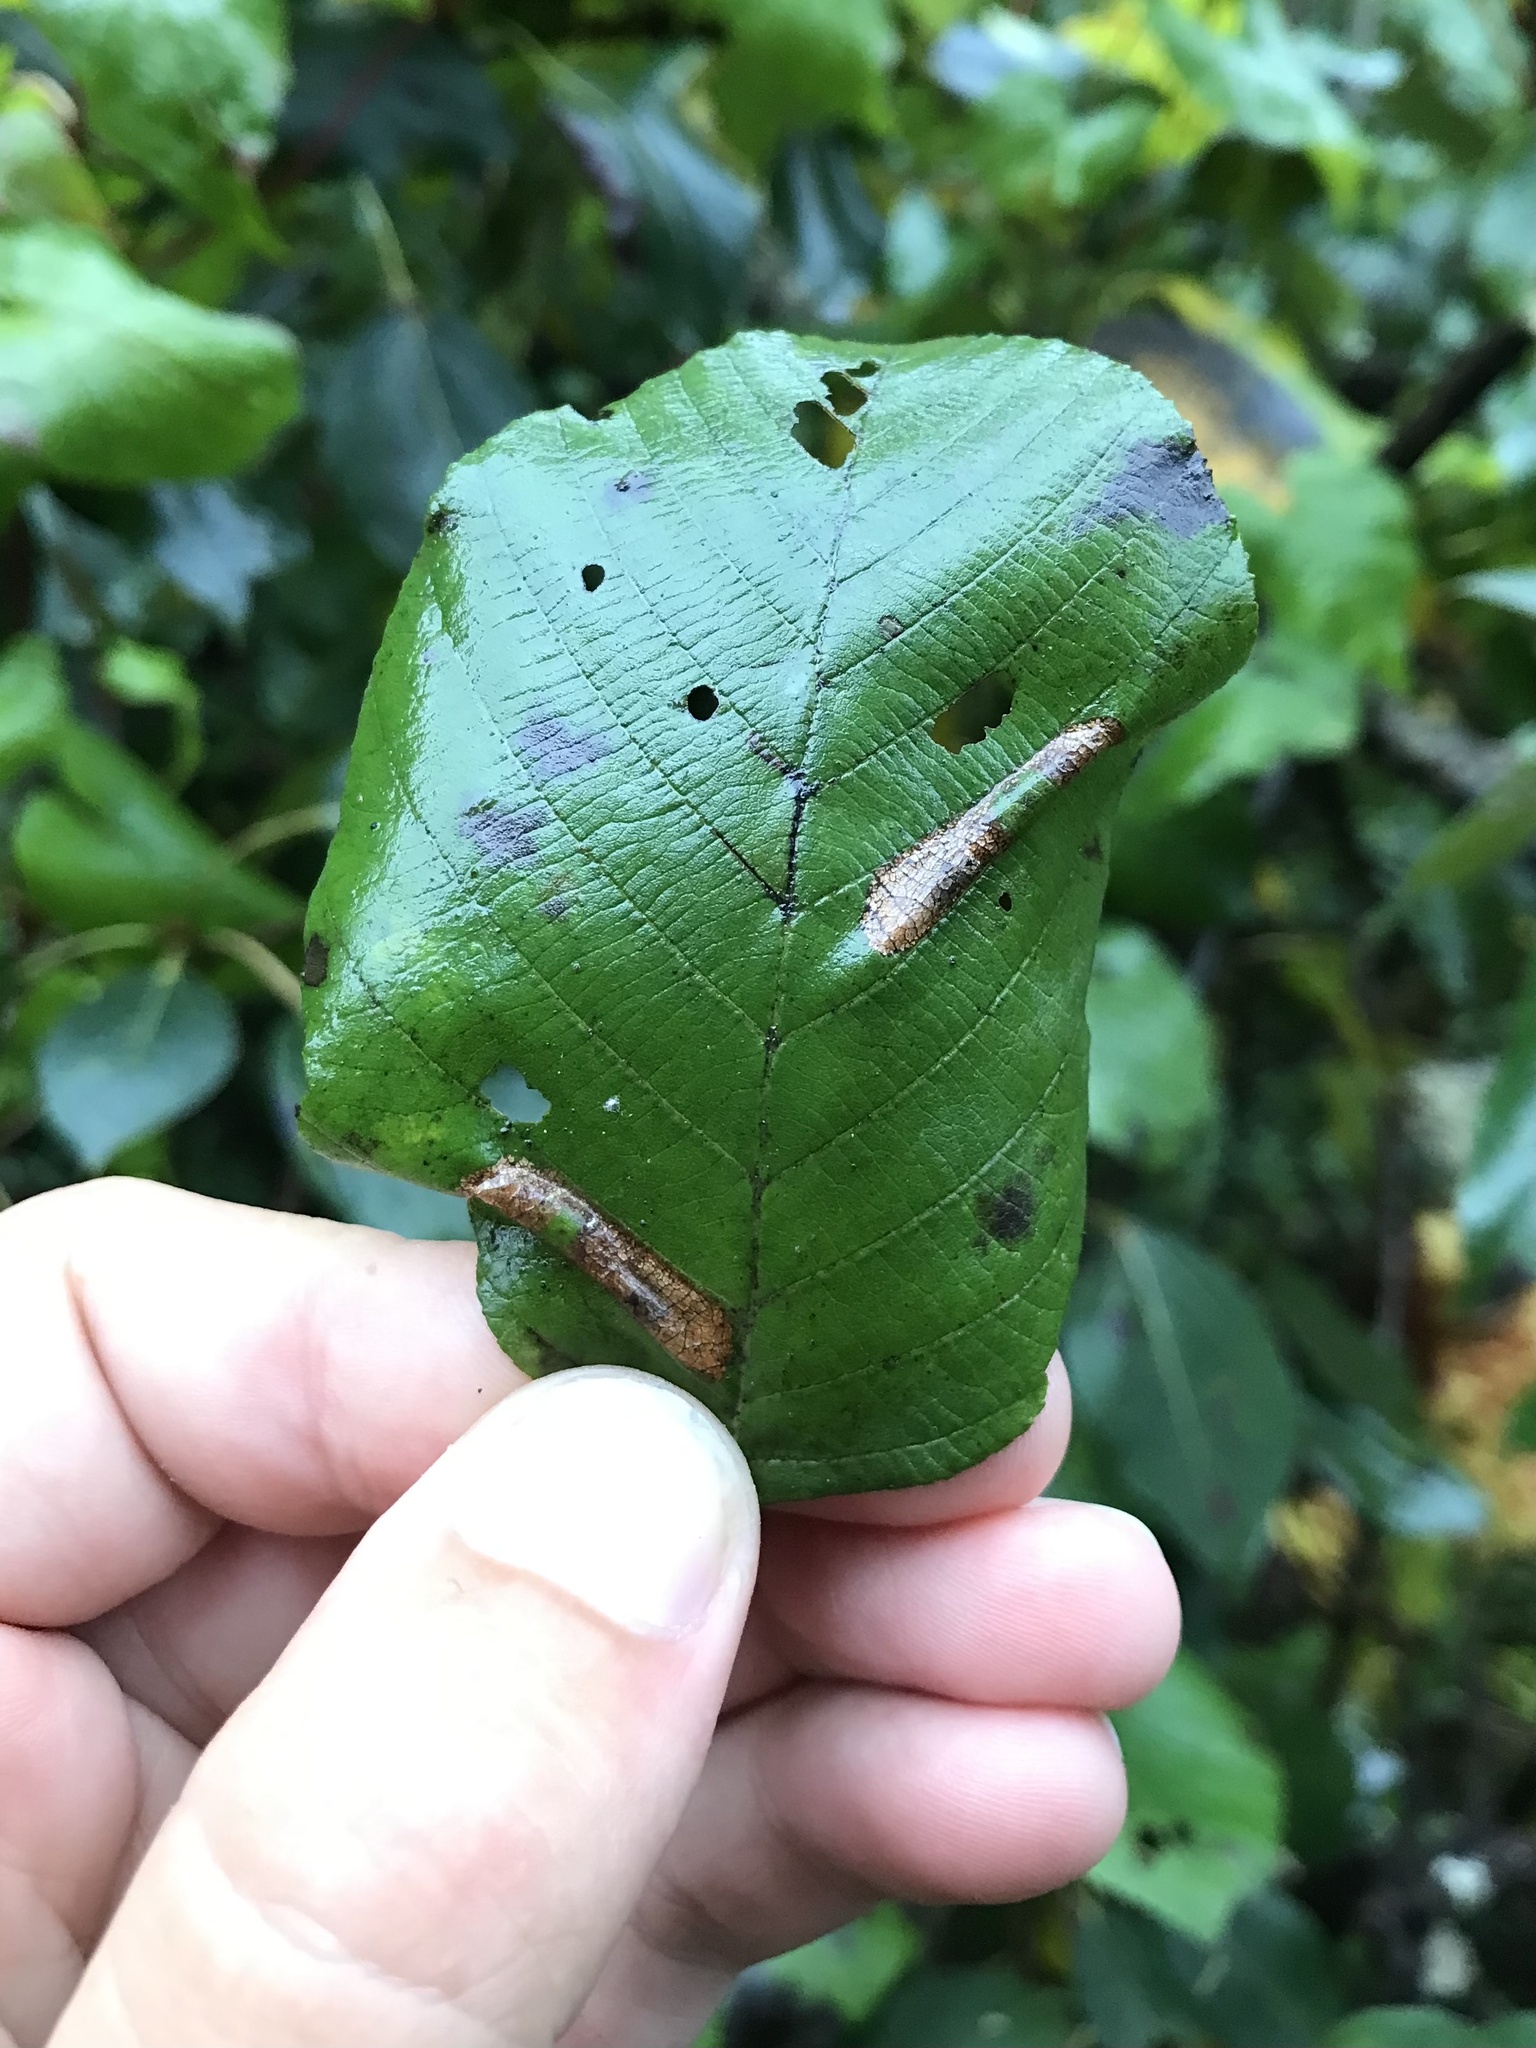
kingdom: Animalia
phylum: Arthropoda
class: Insecta
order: Lepidoptera
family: Gracillariidae
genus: Phyllonorycter
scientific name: Phyllonorycter auronitens
